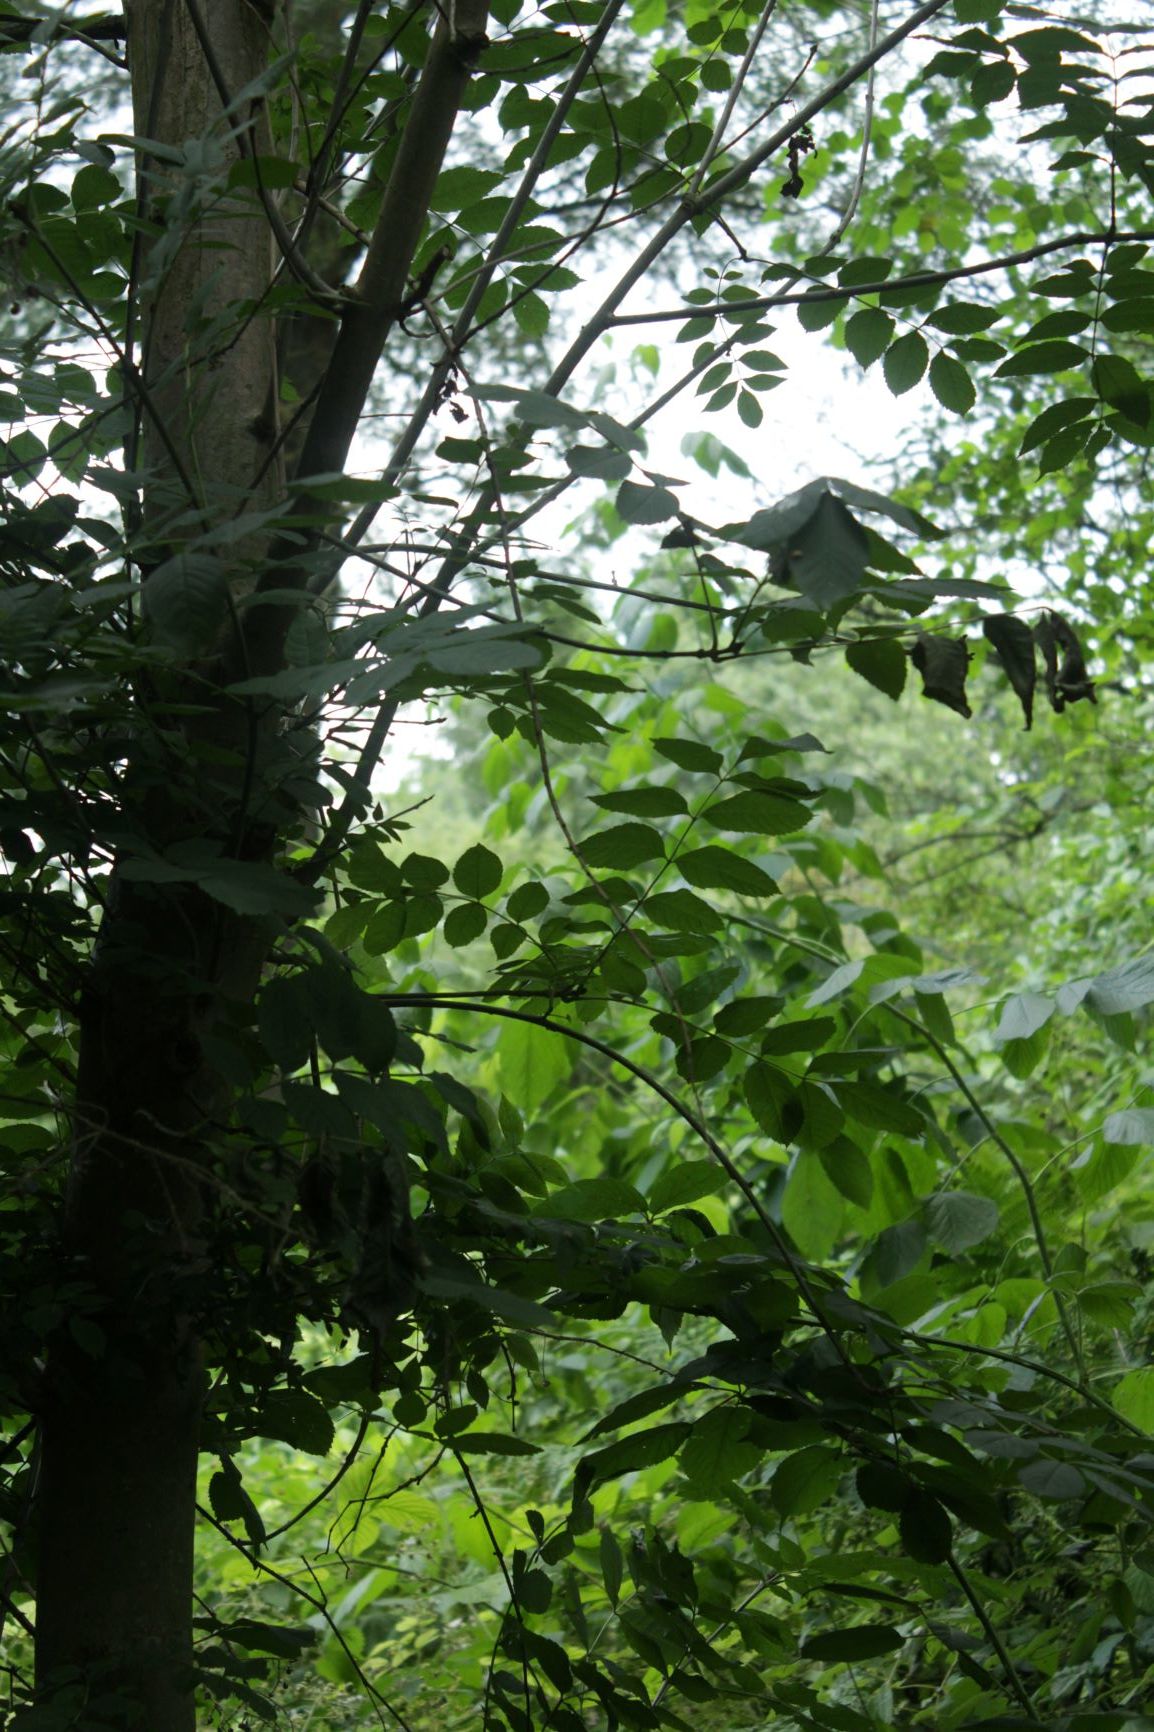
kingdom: Plantae
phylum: Tracheophyta
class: Magnoliopsida
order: Lamiales
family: Oleaceae
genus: Fraxinus
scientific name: Fraxinus excelsior
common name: European ash
